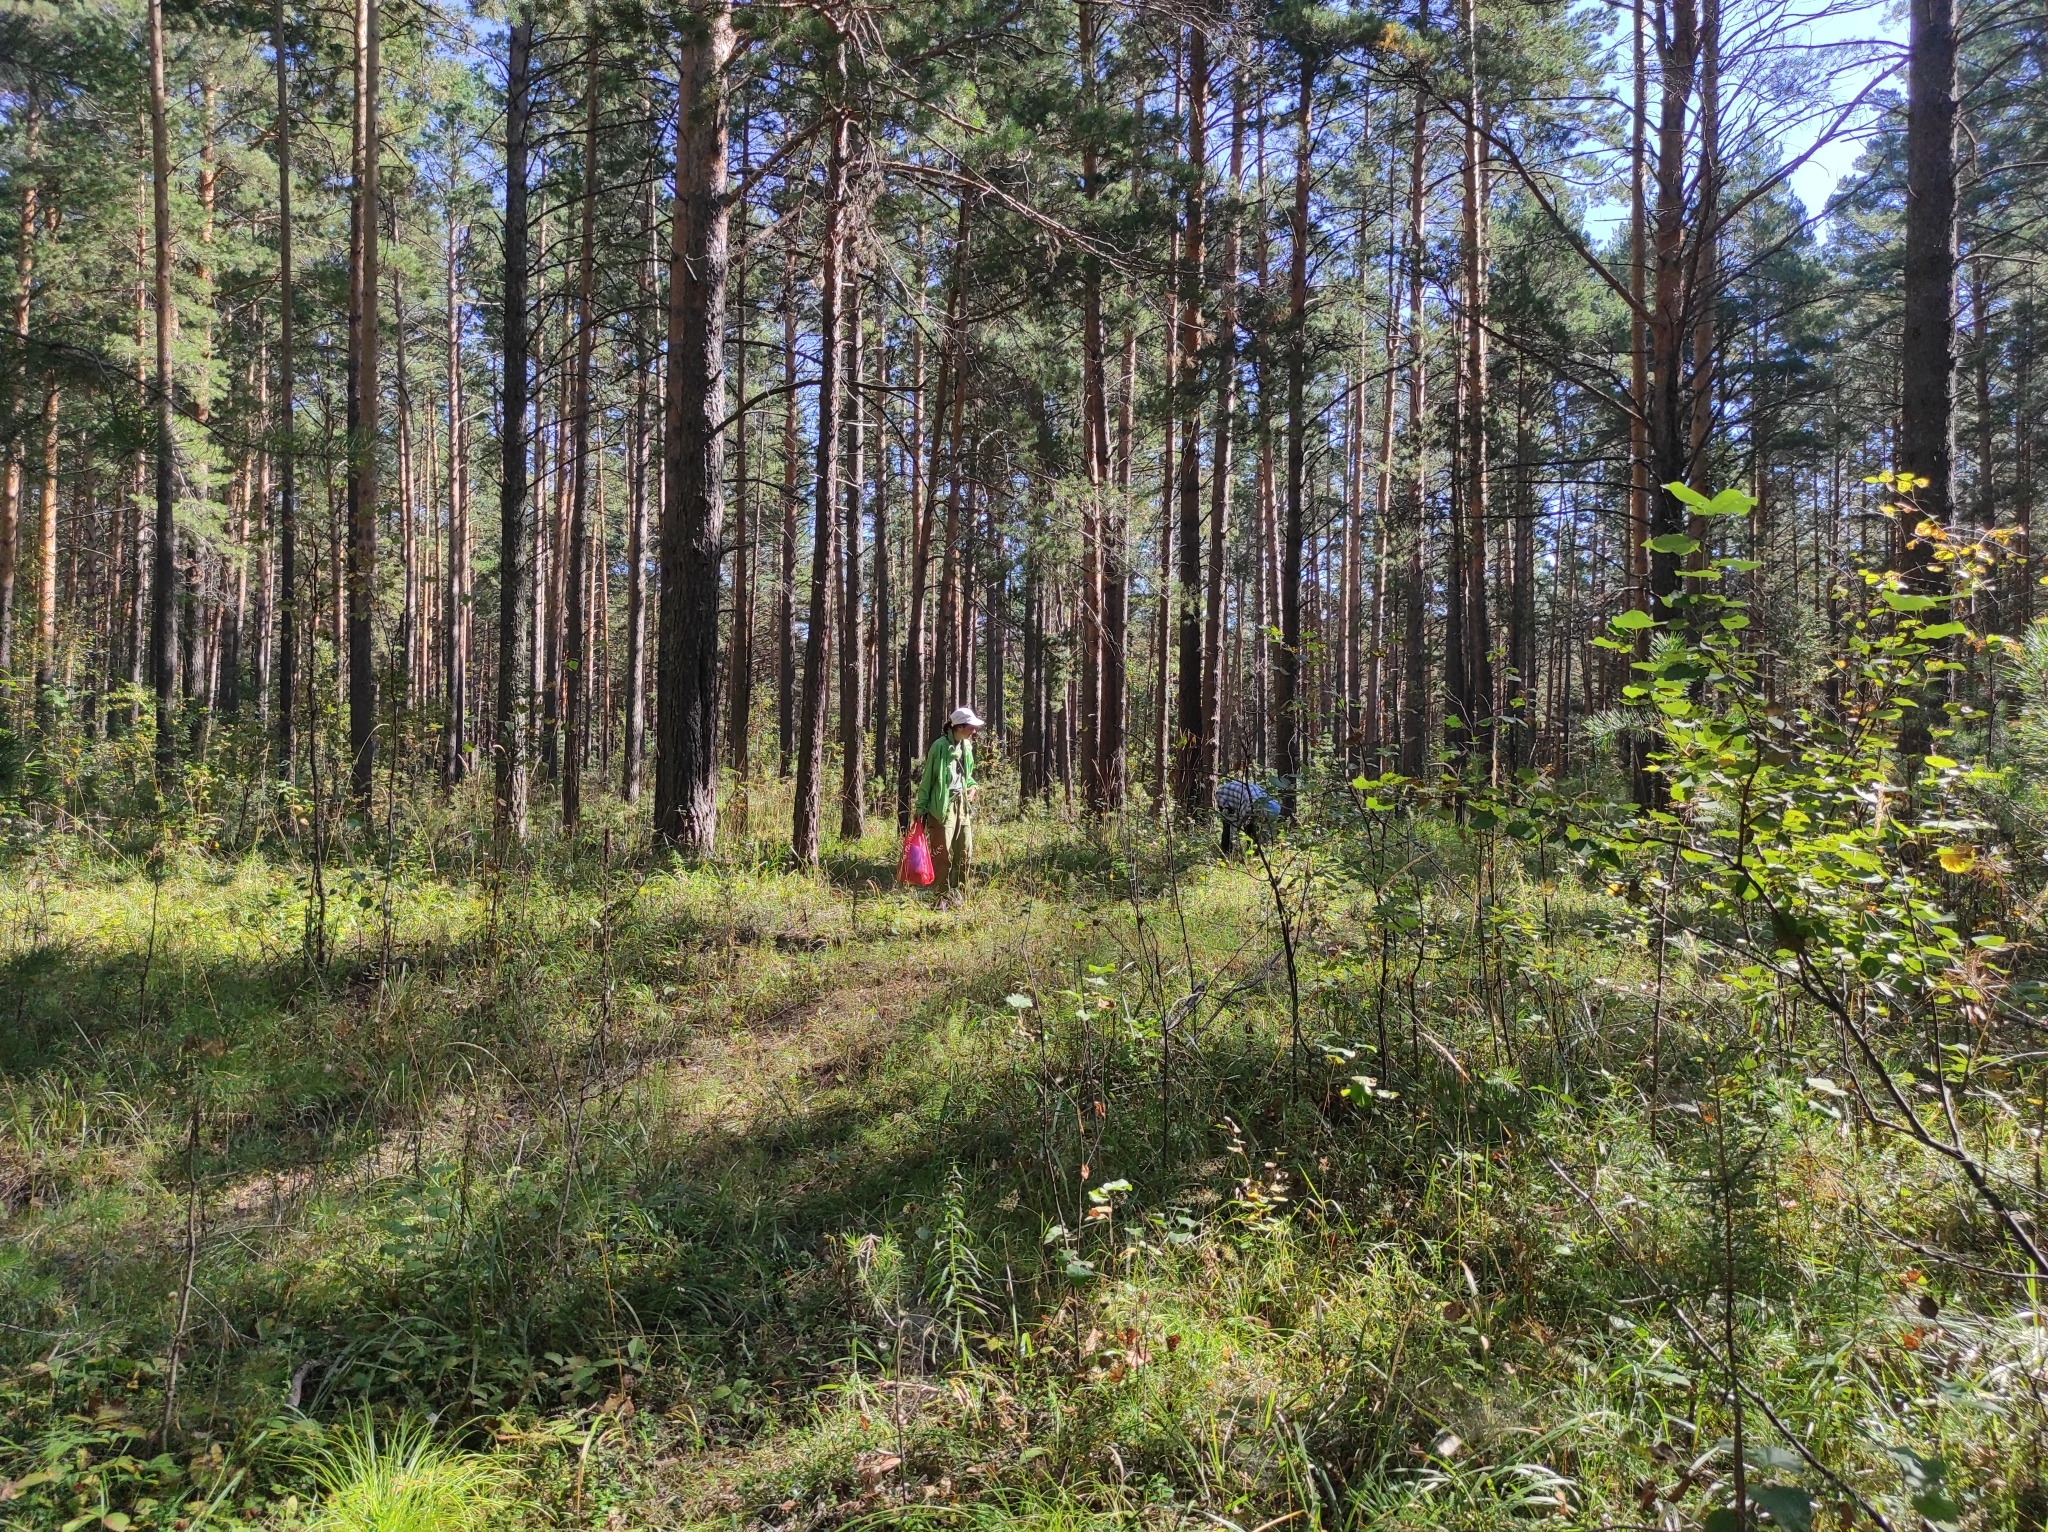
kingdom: Plantae
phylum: Tracheophyta
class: Pinopsida
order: Pinales
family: Pinaceae
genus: Pinus
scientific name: Pinus sylvestris
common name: Scots pine
